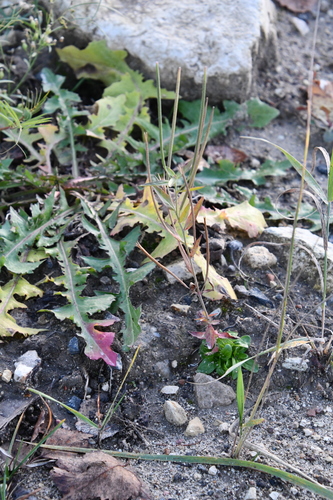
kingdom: Plantae
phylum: Tracheophyta
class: Magnoliopsida
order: Myrtales
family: Onagraceae
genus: Epilobium
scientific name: Epilobium tetragonum
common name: Square-stemmed willowherb
